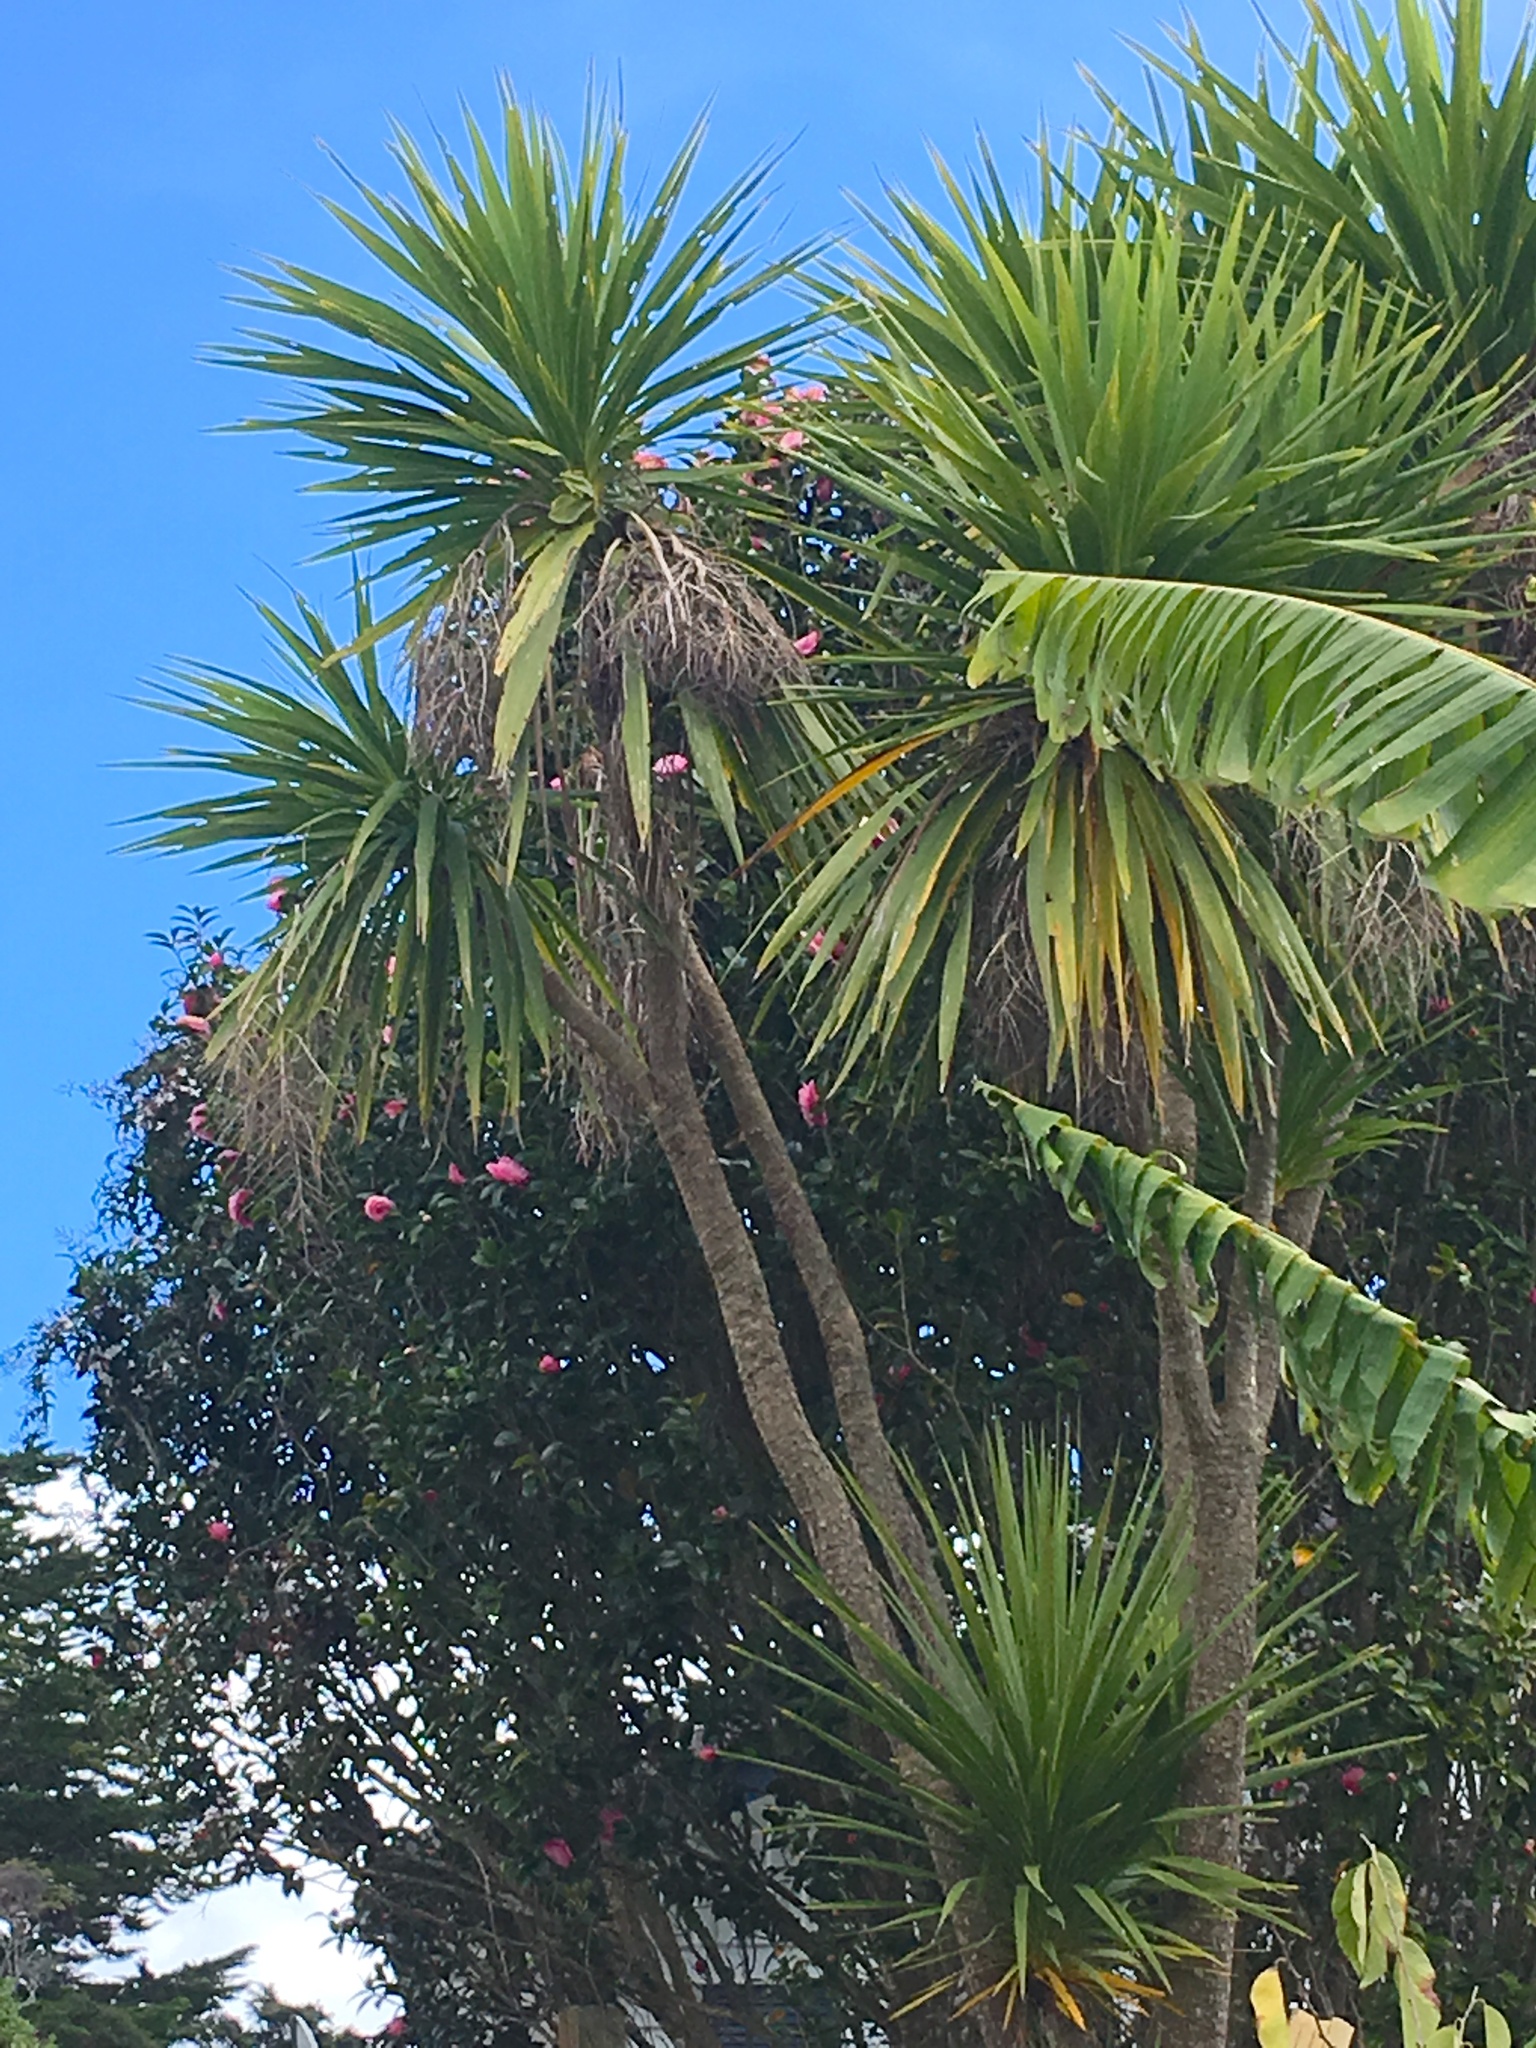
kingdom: Plantae
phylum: Tracheophyta
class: Liliopsida
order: Asparagales
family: Asparagaceae
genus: Cordyline
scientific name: Cordyline australis
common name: Cabbage-palm
